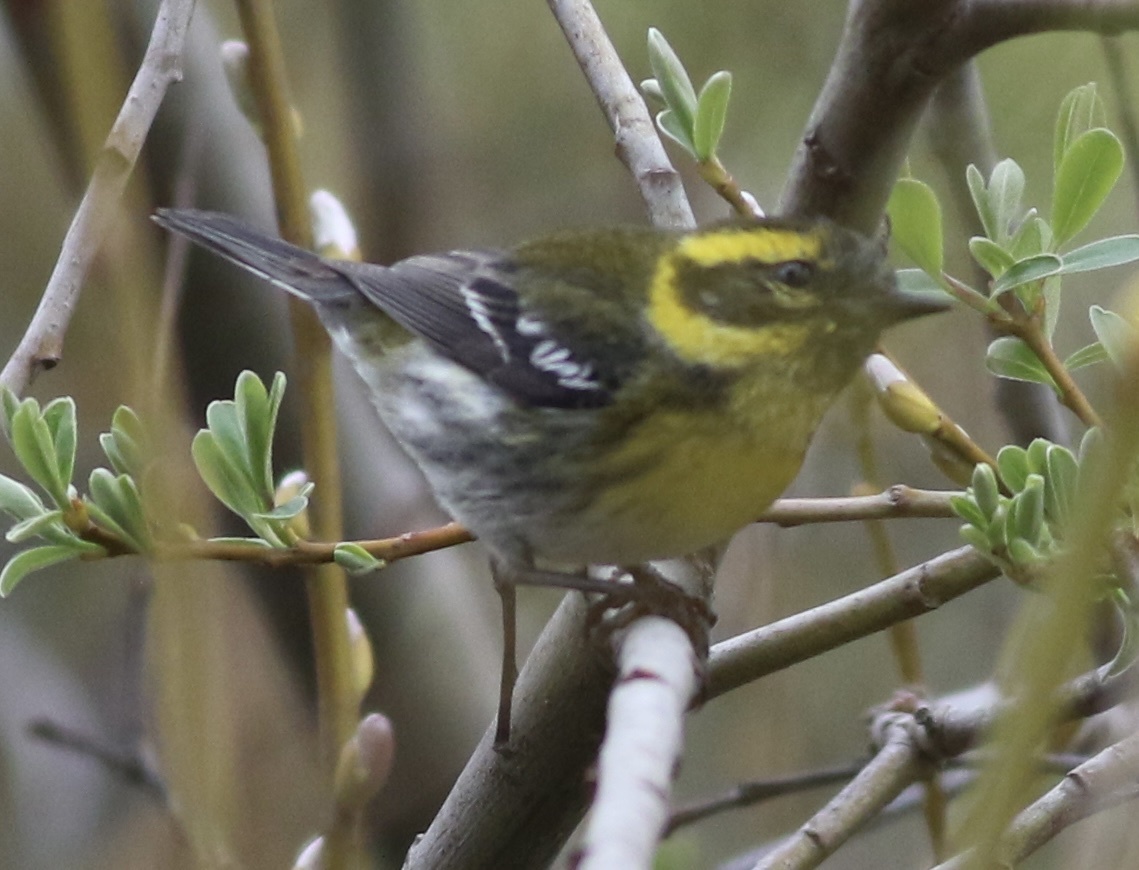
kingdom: Animalia
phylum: Chordata
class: Aves
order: Passeriformes
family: Parulidae
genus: Setophaga
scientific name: Setophaga townsendi
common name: Townsend's warbler
